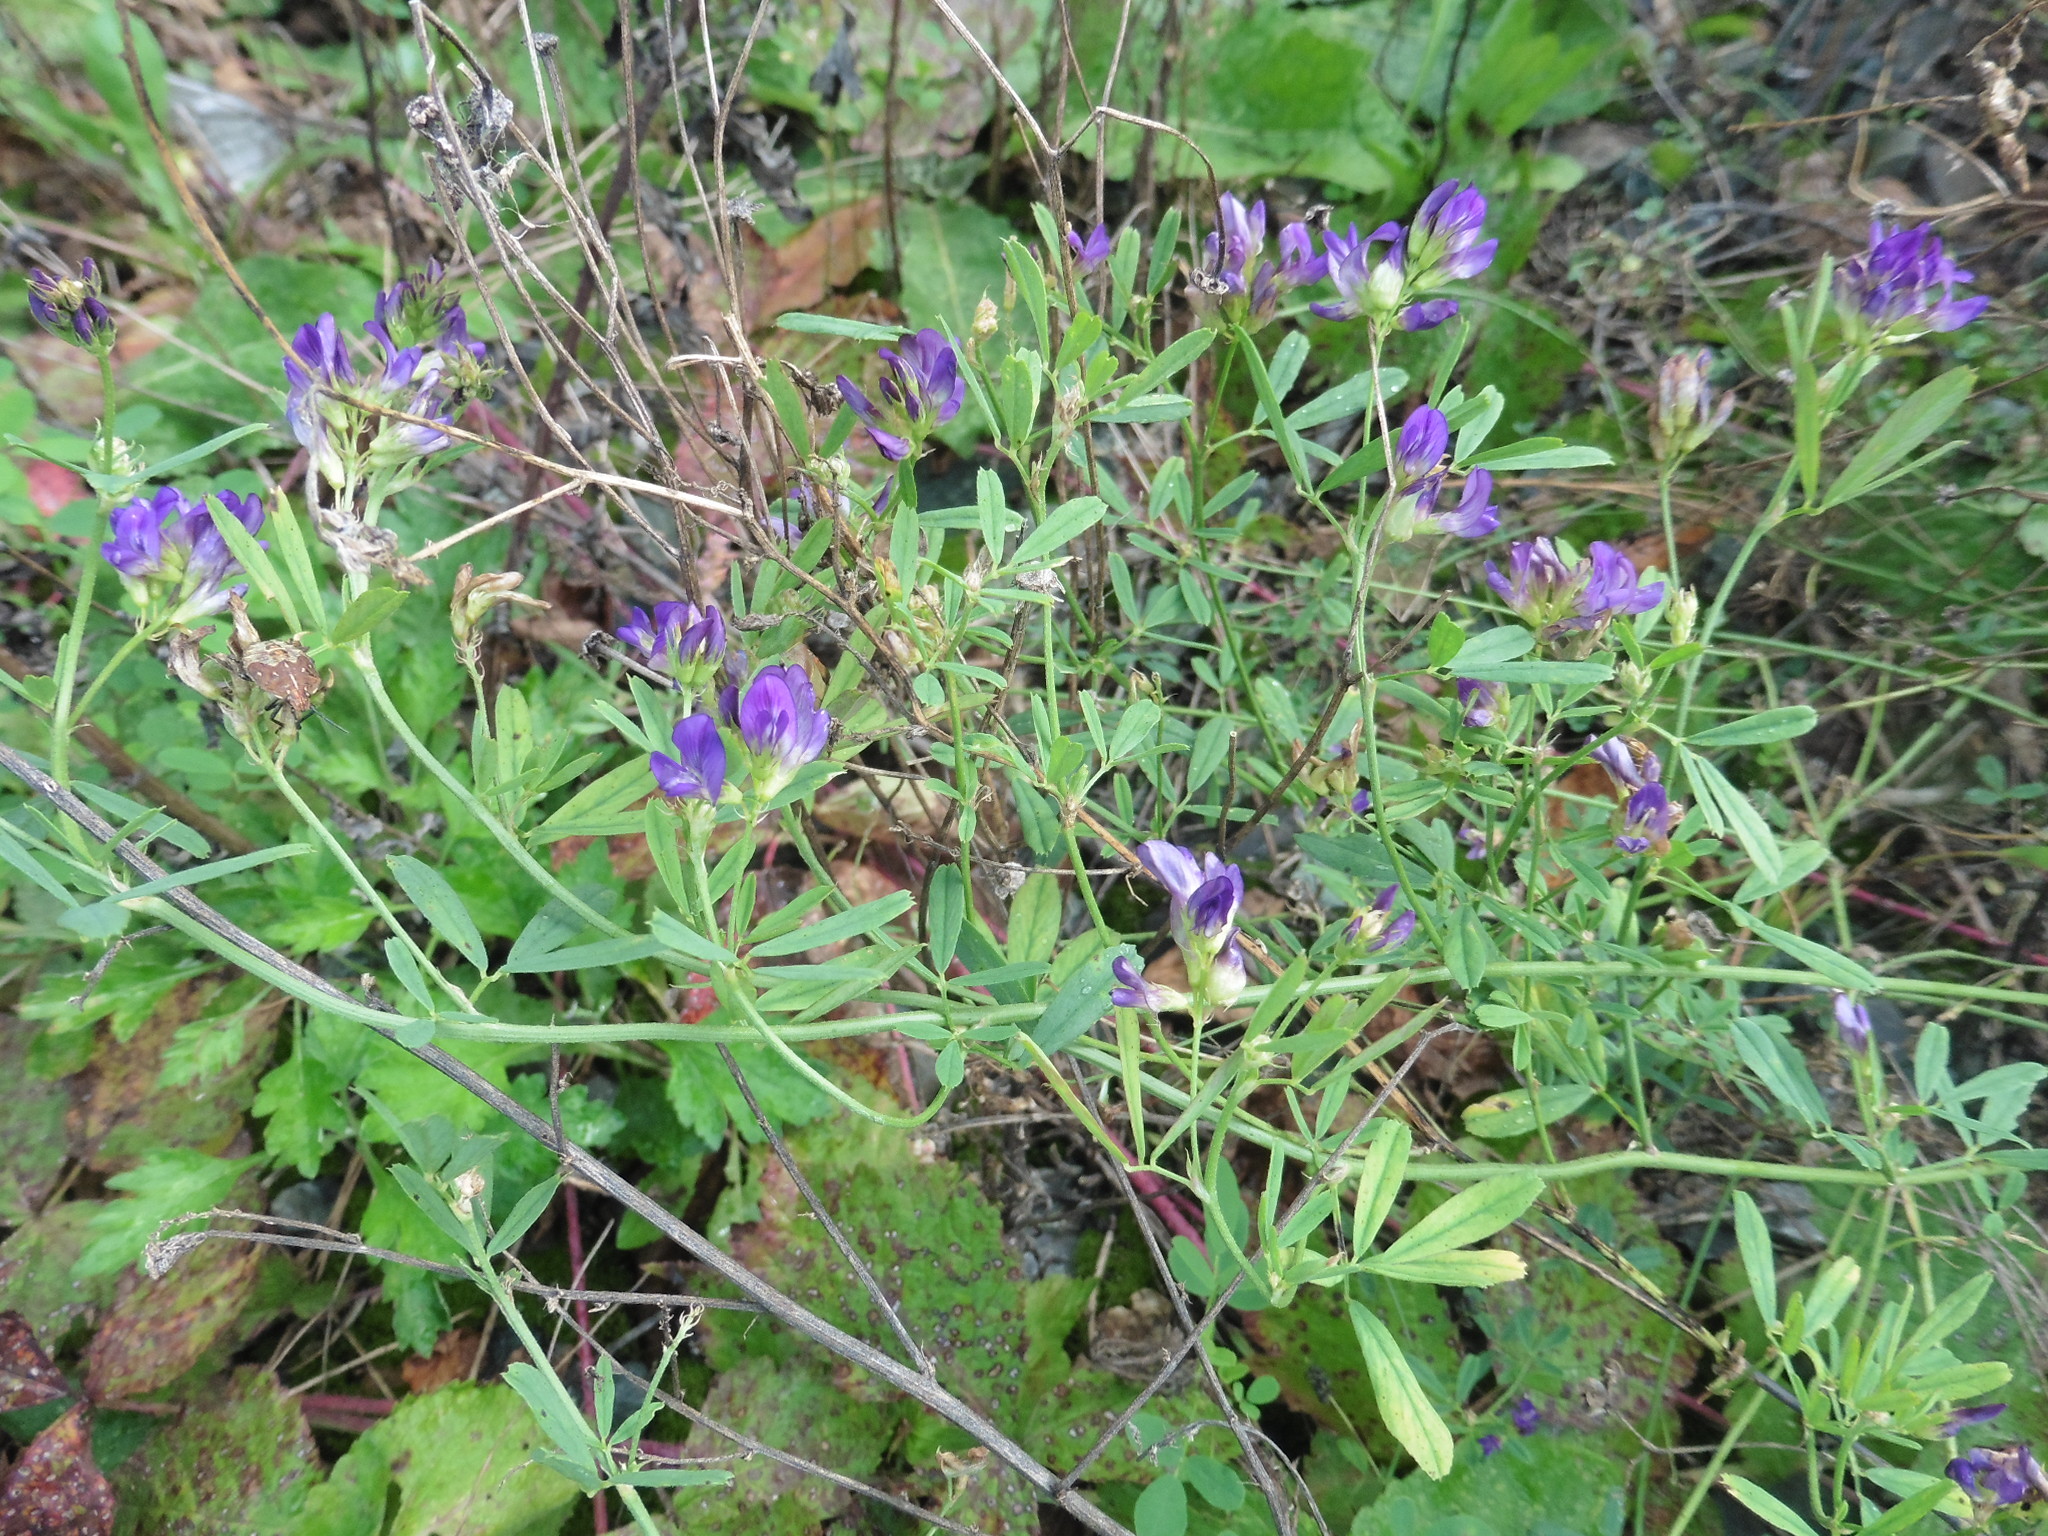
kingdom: Plantae
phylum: Tracheophyta
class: Magnoliopsida
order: Fabales
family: Fabaceae
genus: Medicago
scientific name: Medicago varia
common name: Sand lucerne
